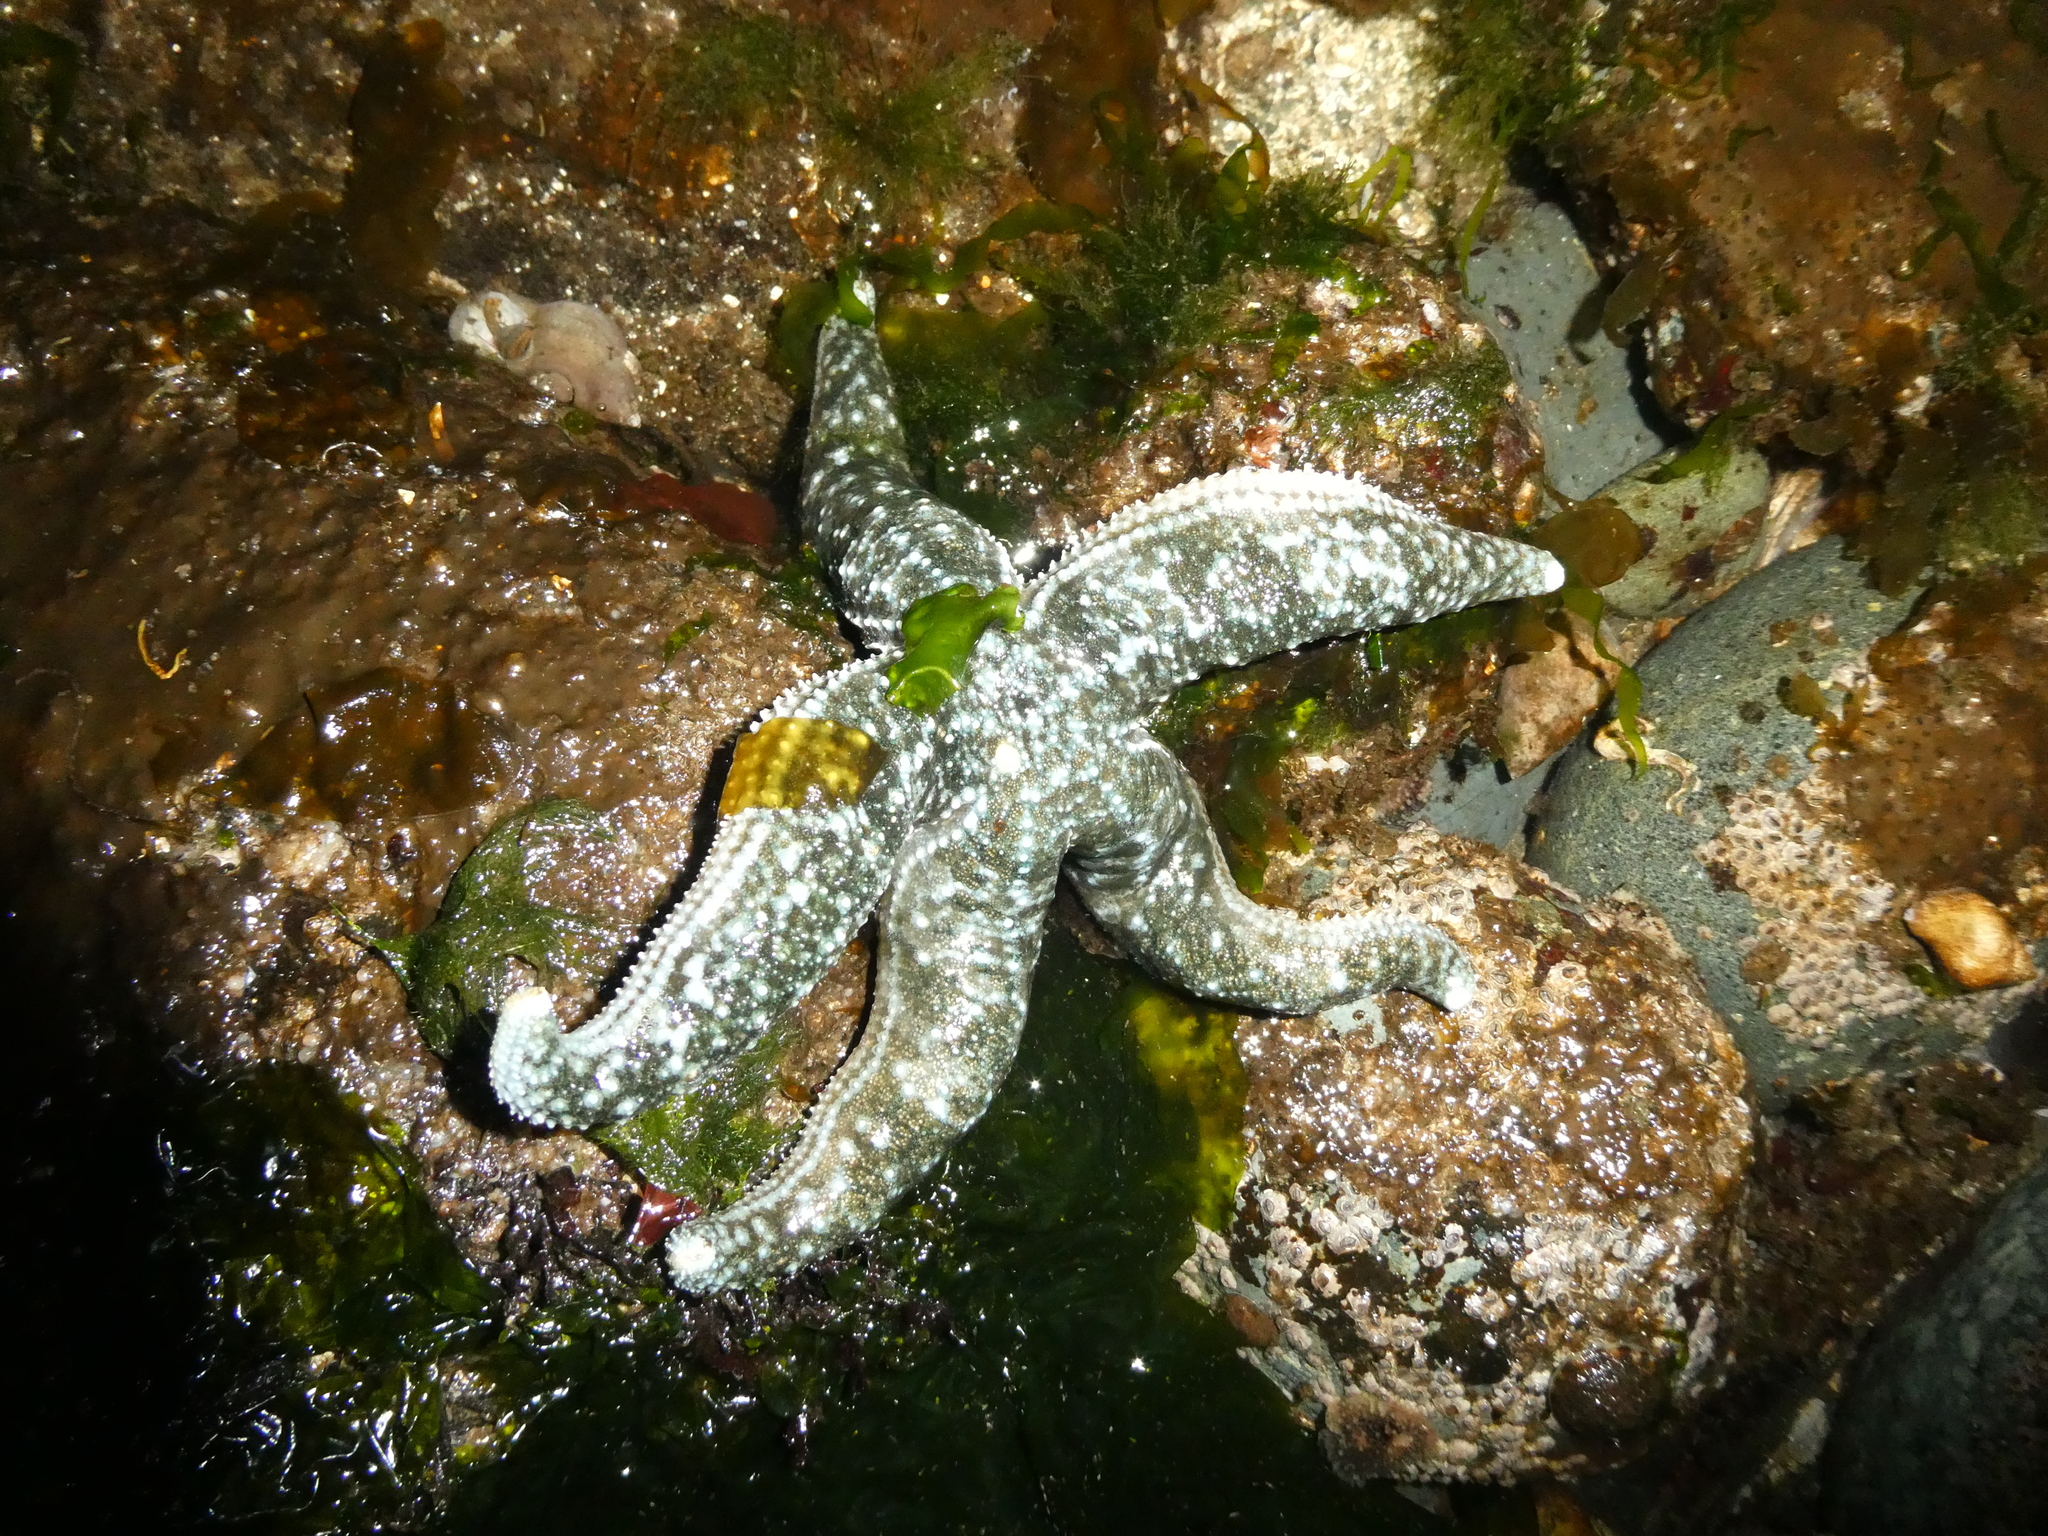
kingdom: Animalia
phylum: Echinodermata
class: Asteroidea
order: Forcipulatida
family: Asteriidae
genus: Evasterias
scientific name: Evasterias troschelii
